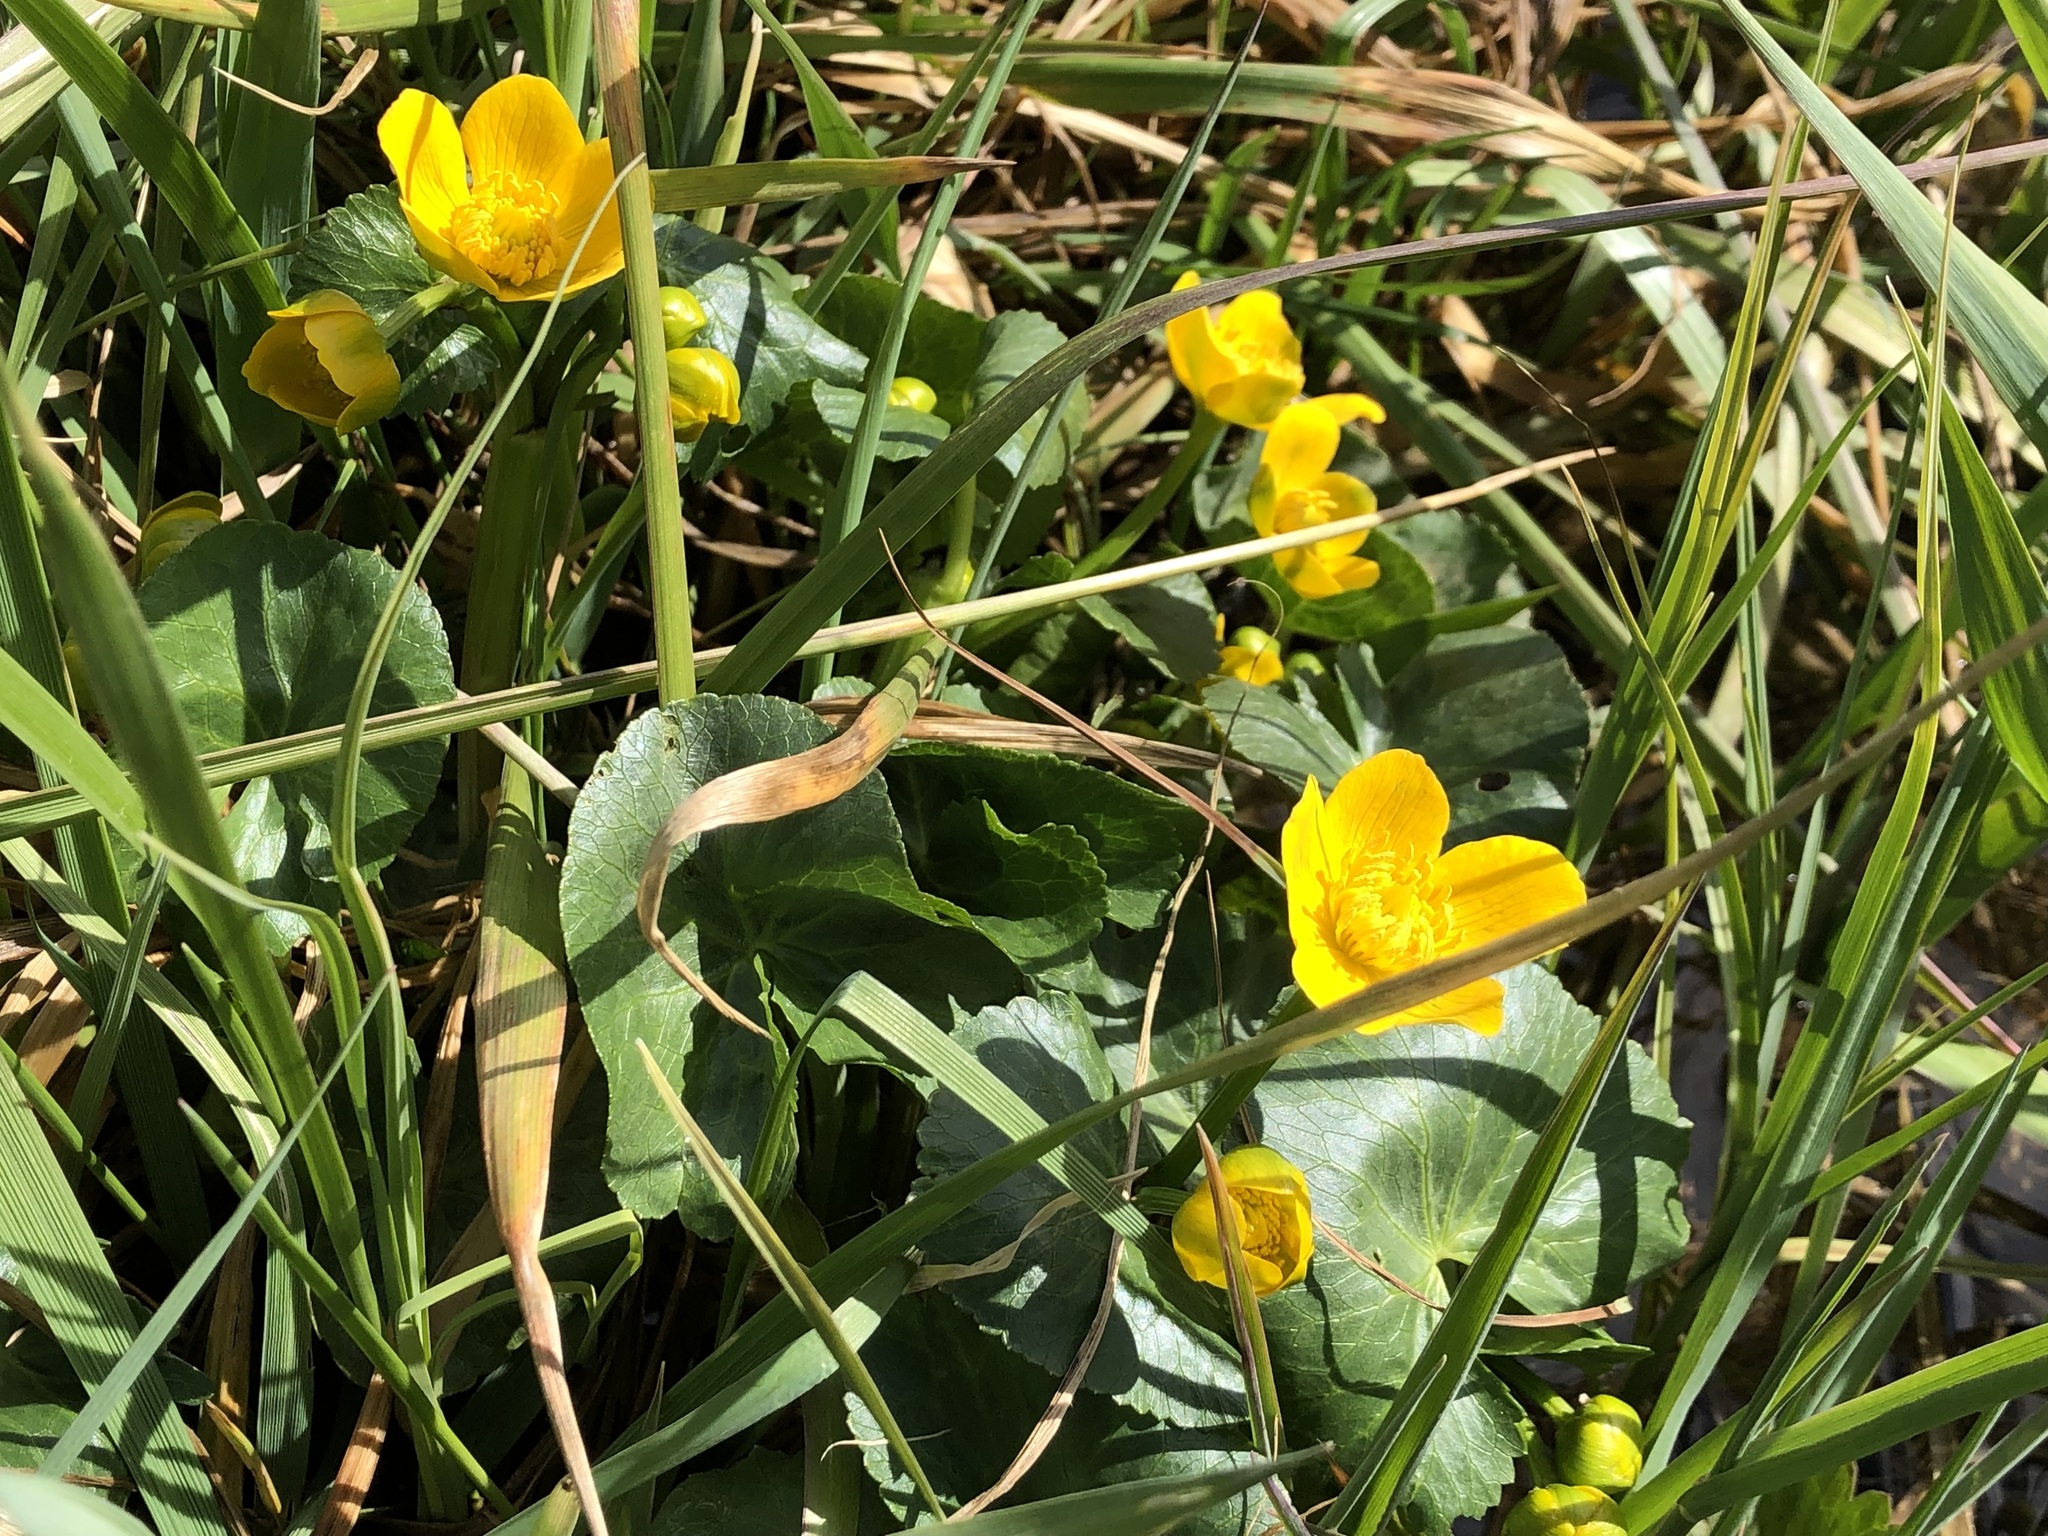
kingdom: Plantae
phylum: Tracheophyta
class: Magnoliopsida
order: Ranunculales
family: Ranunculaceae
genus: Caltha
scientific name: Caltha palustris
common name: Marsh marigold
